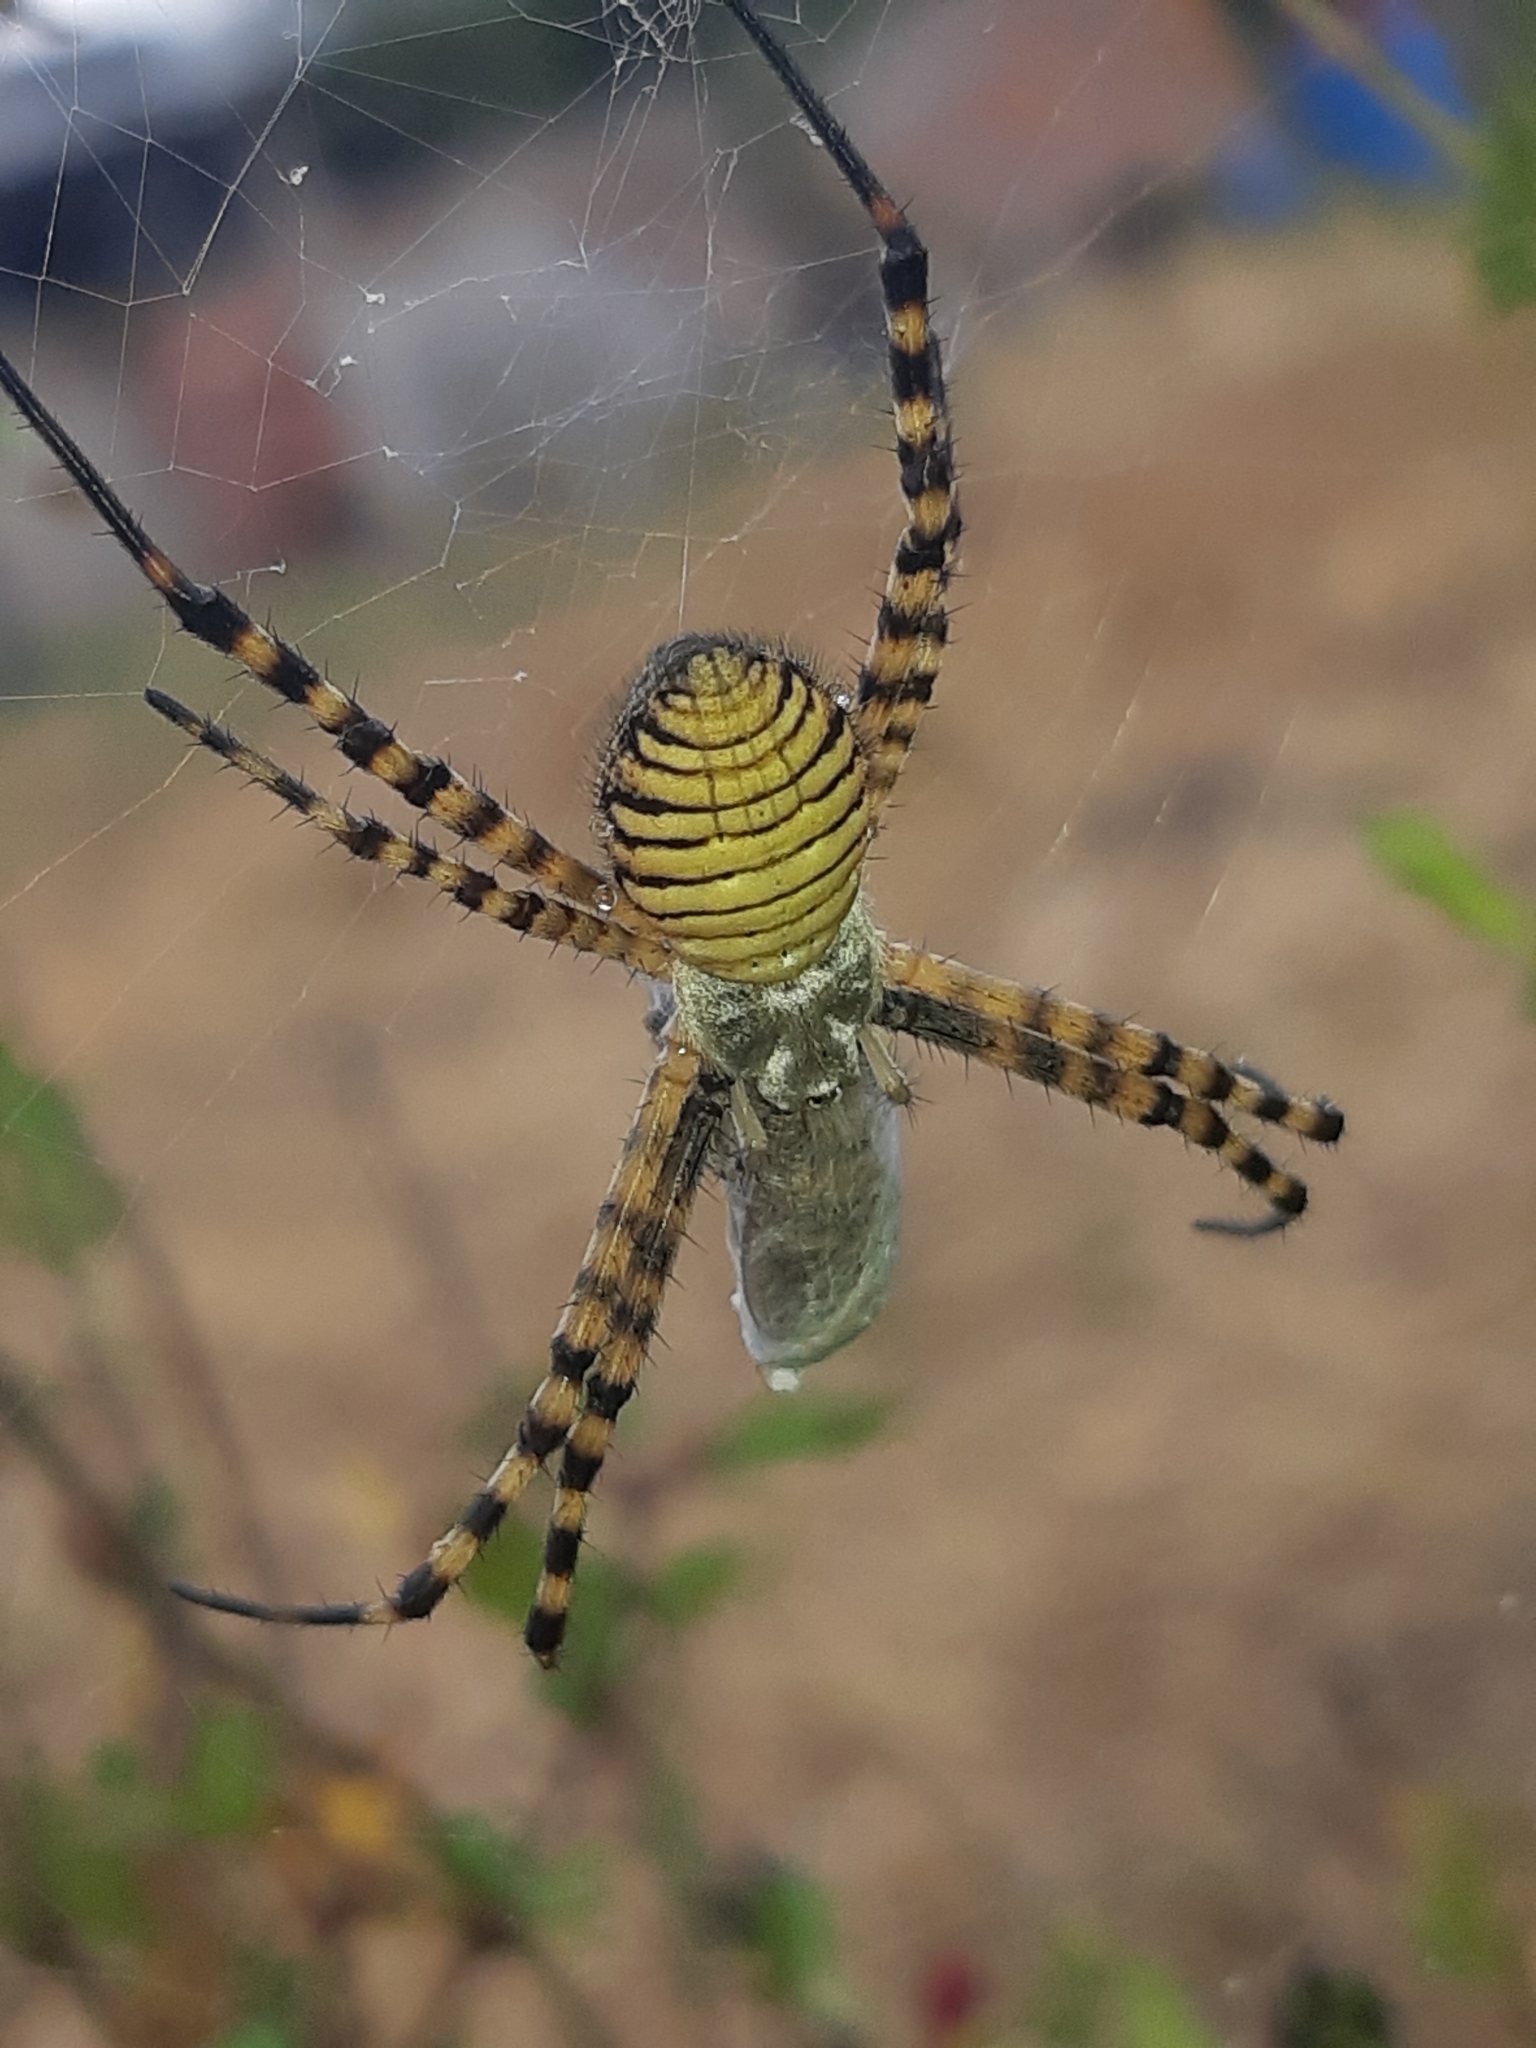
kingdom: Animalia
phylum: Arthropoda
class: Arachnida
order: Araneae
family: Araneidae
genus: Argiope
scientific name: Argiope trifasciata
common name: Banded garden spider
